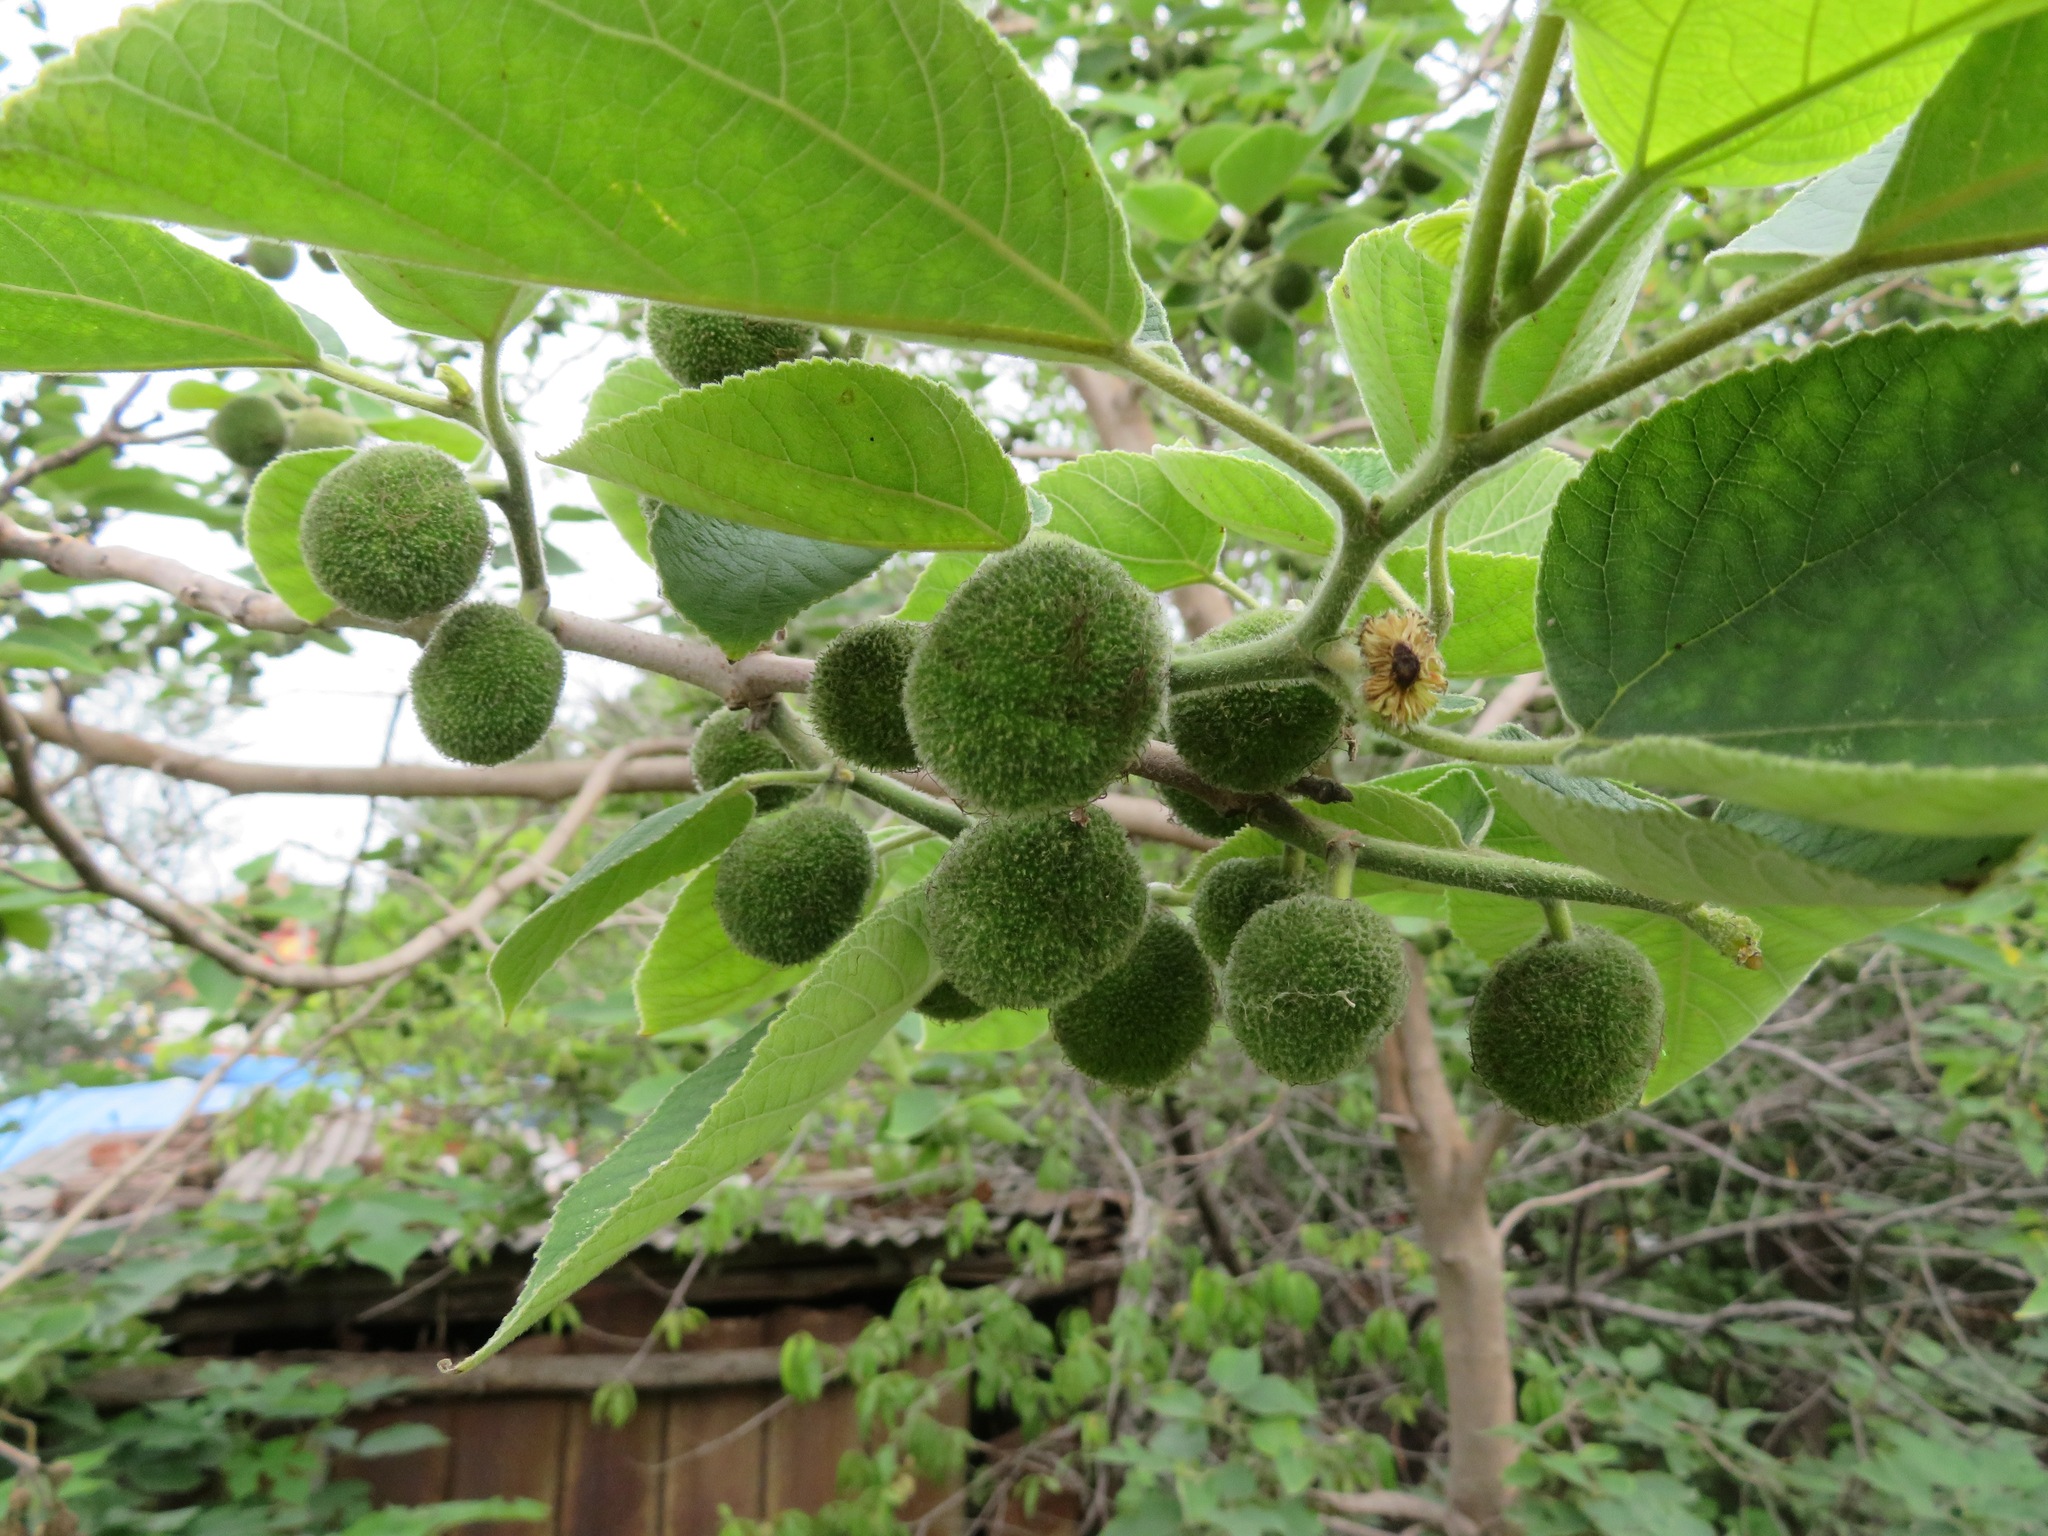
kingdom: Plantae
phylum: Tracheophyta
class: Magnoliopsida
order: Rosales
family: Moraceae
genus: Broussonetia
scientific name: Broussonetia papyrifera
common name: Paper mulberry
